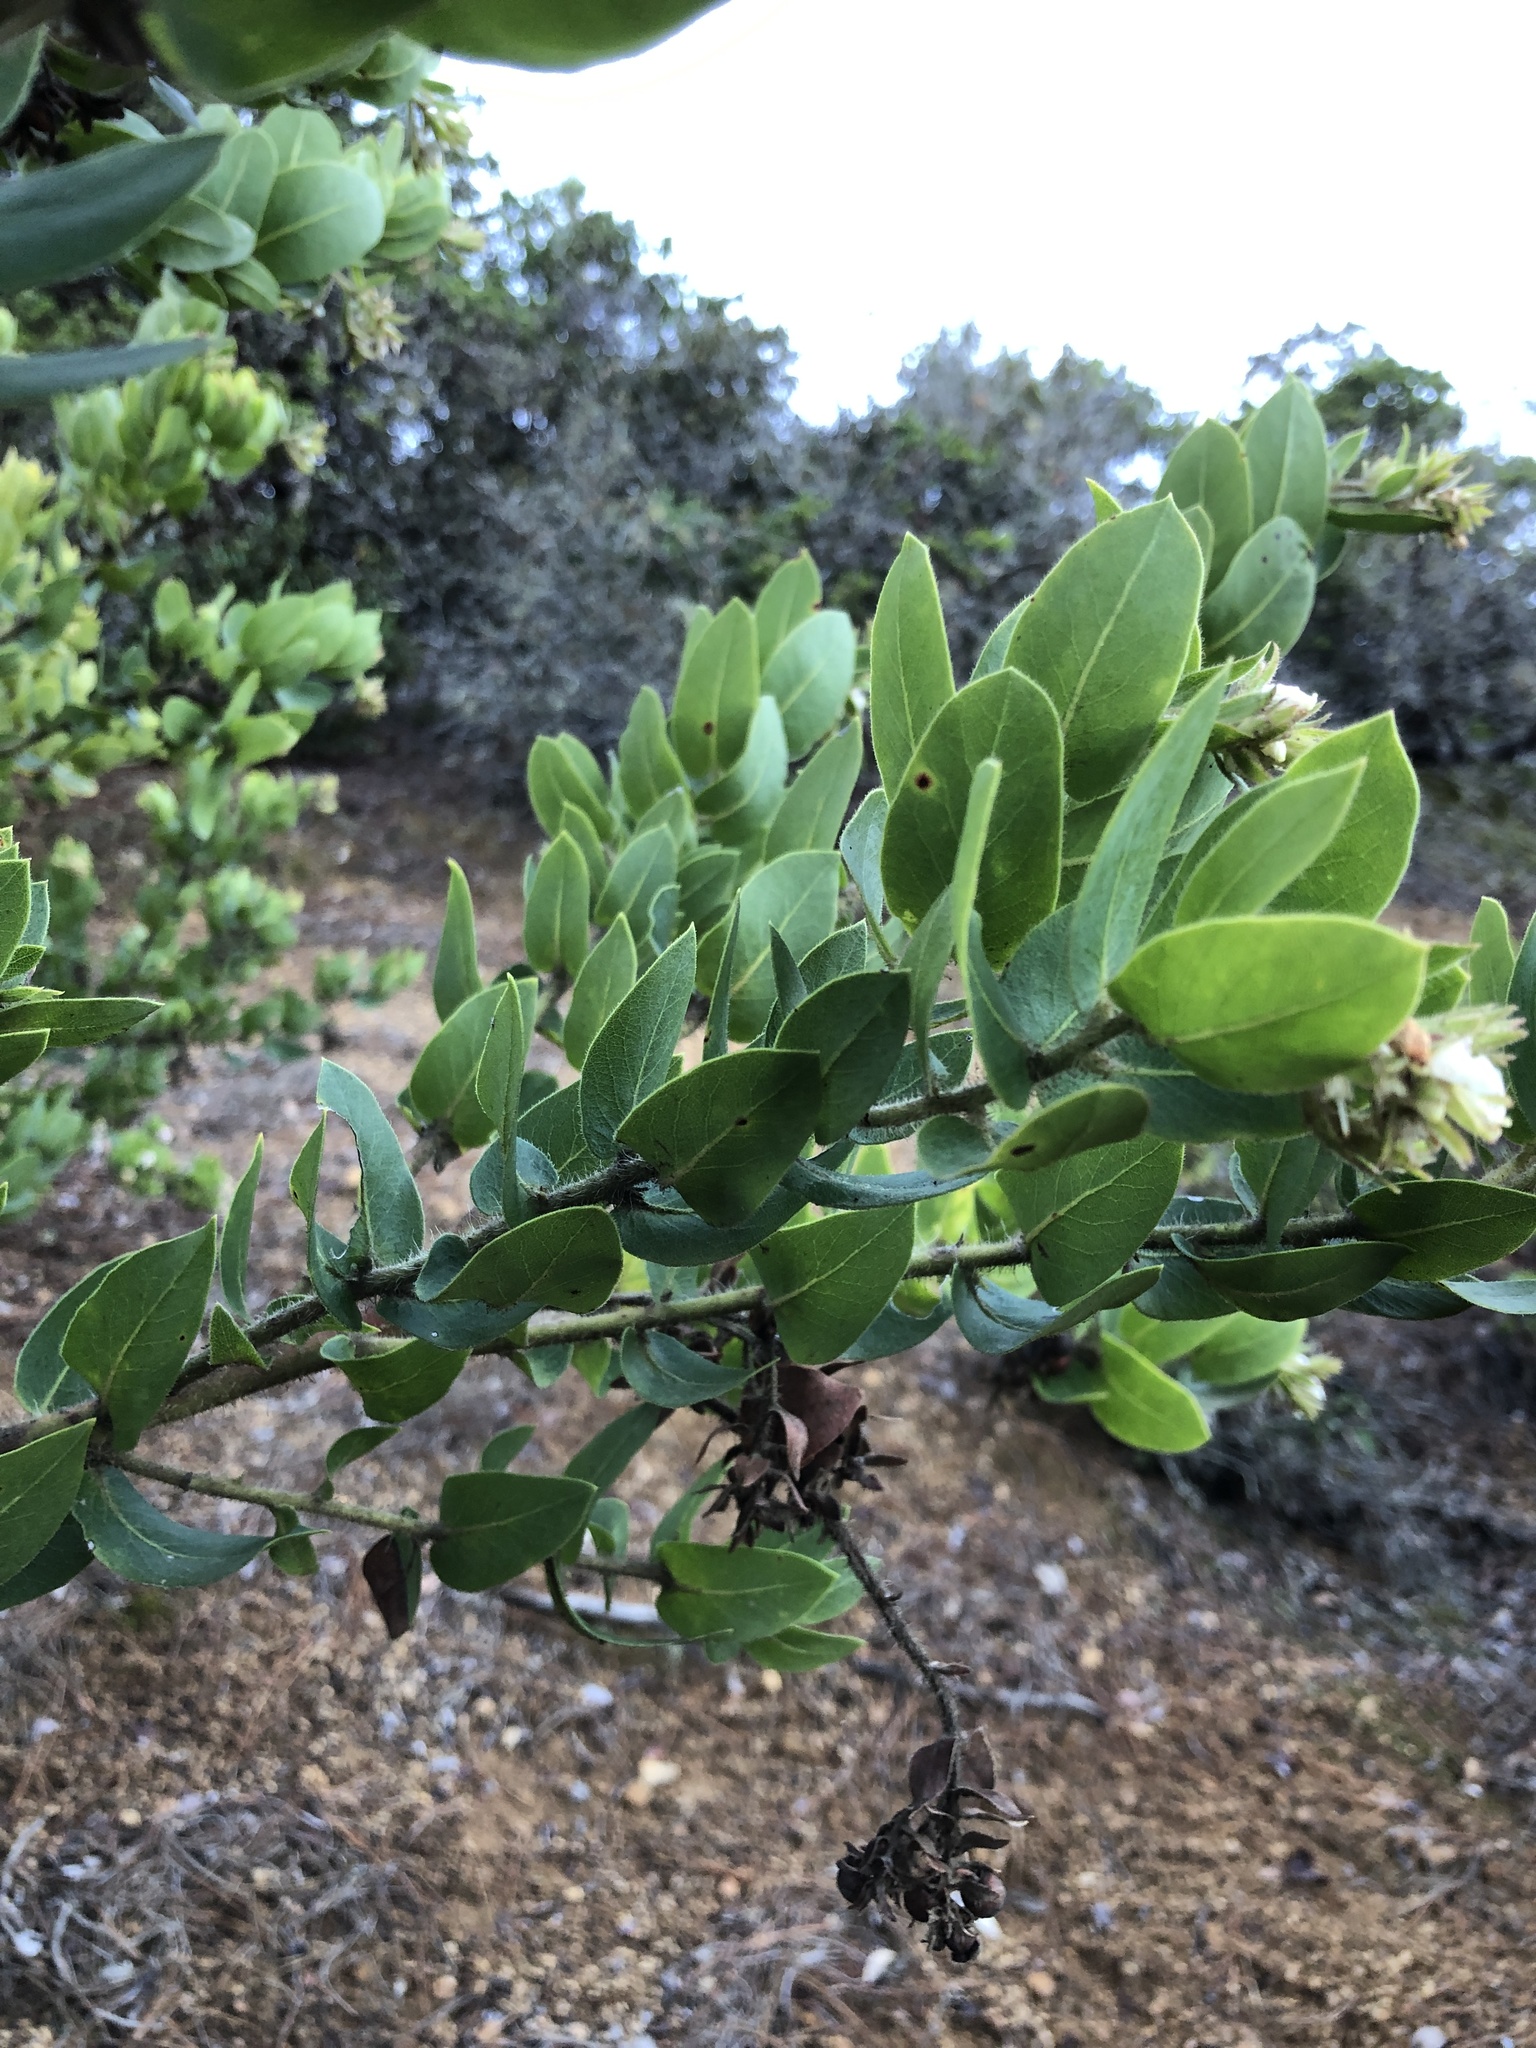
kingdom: Plantae
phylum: Tracheophyta
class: Magnoliopsida
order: Ericales
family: Ericaceae
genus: Arctostaphylos
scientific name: Arctostaphylos montaraensis
